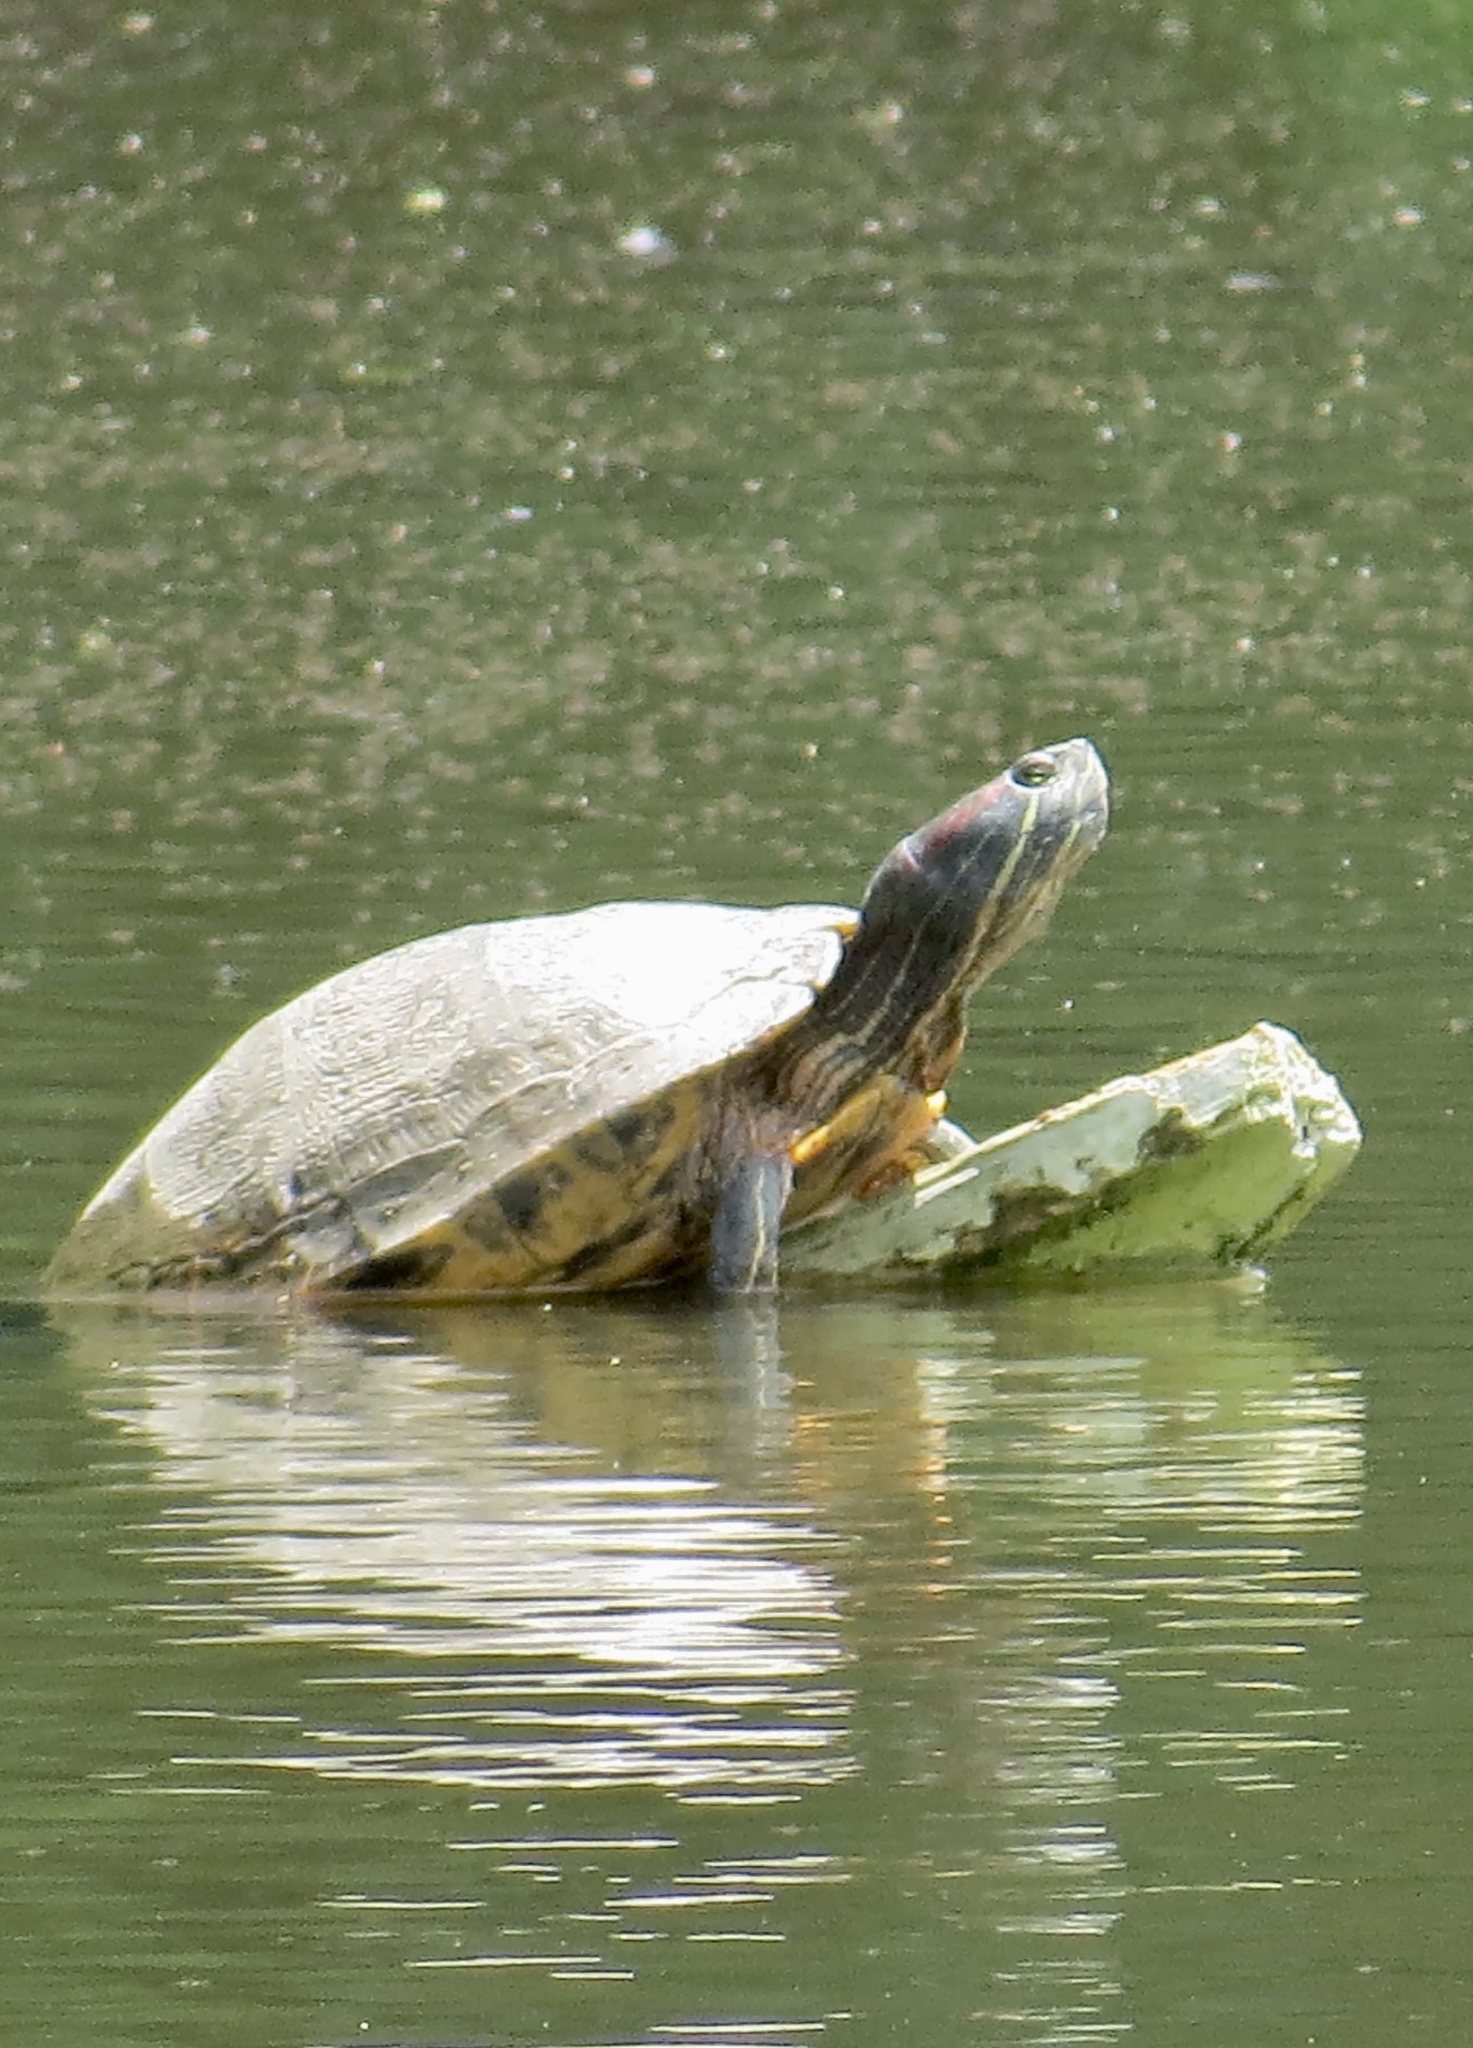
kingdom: Animalia
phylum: Chordata
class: Testudines
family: Emydidae
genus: Trachemys
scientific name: Trachemys scripta
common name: Slider
